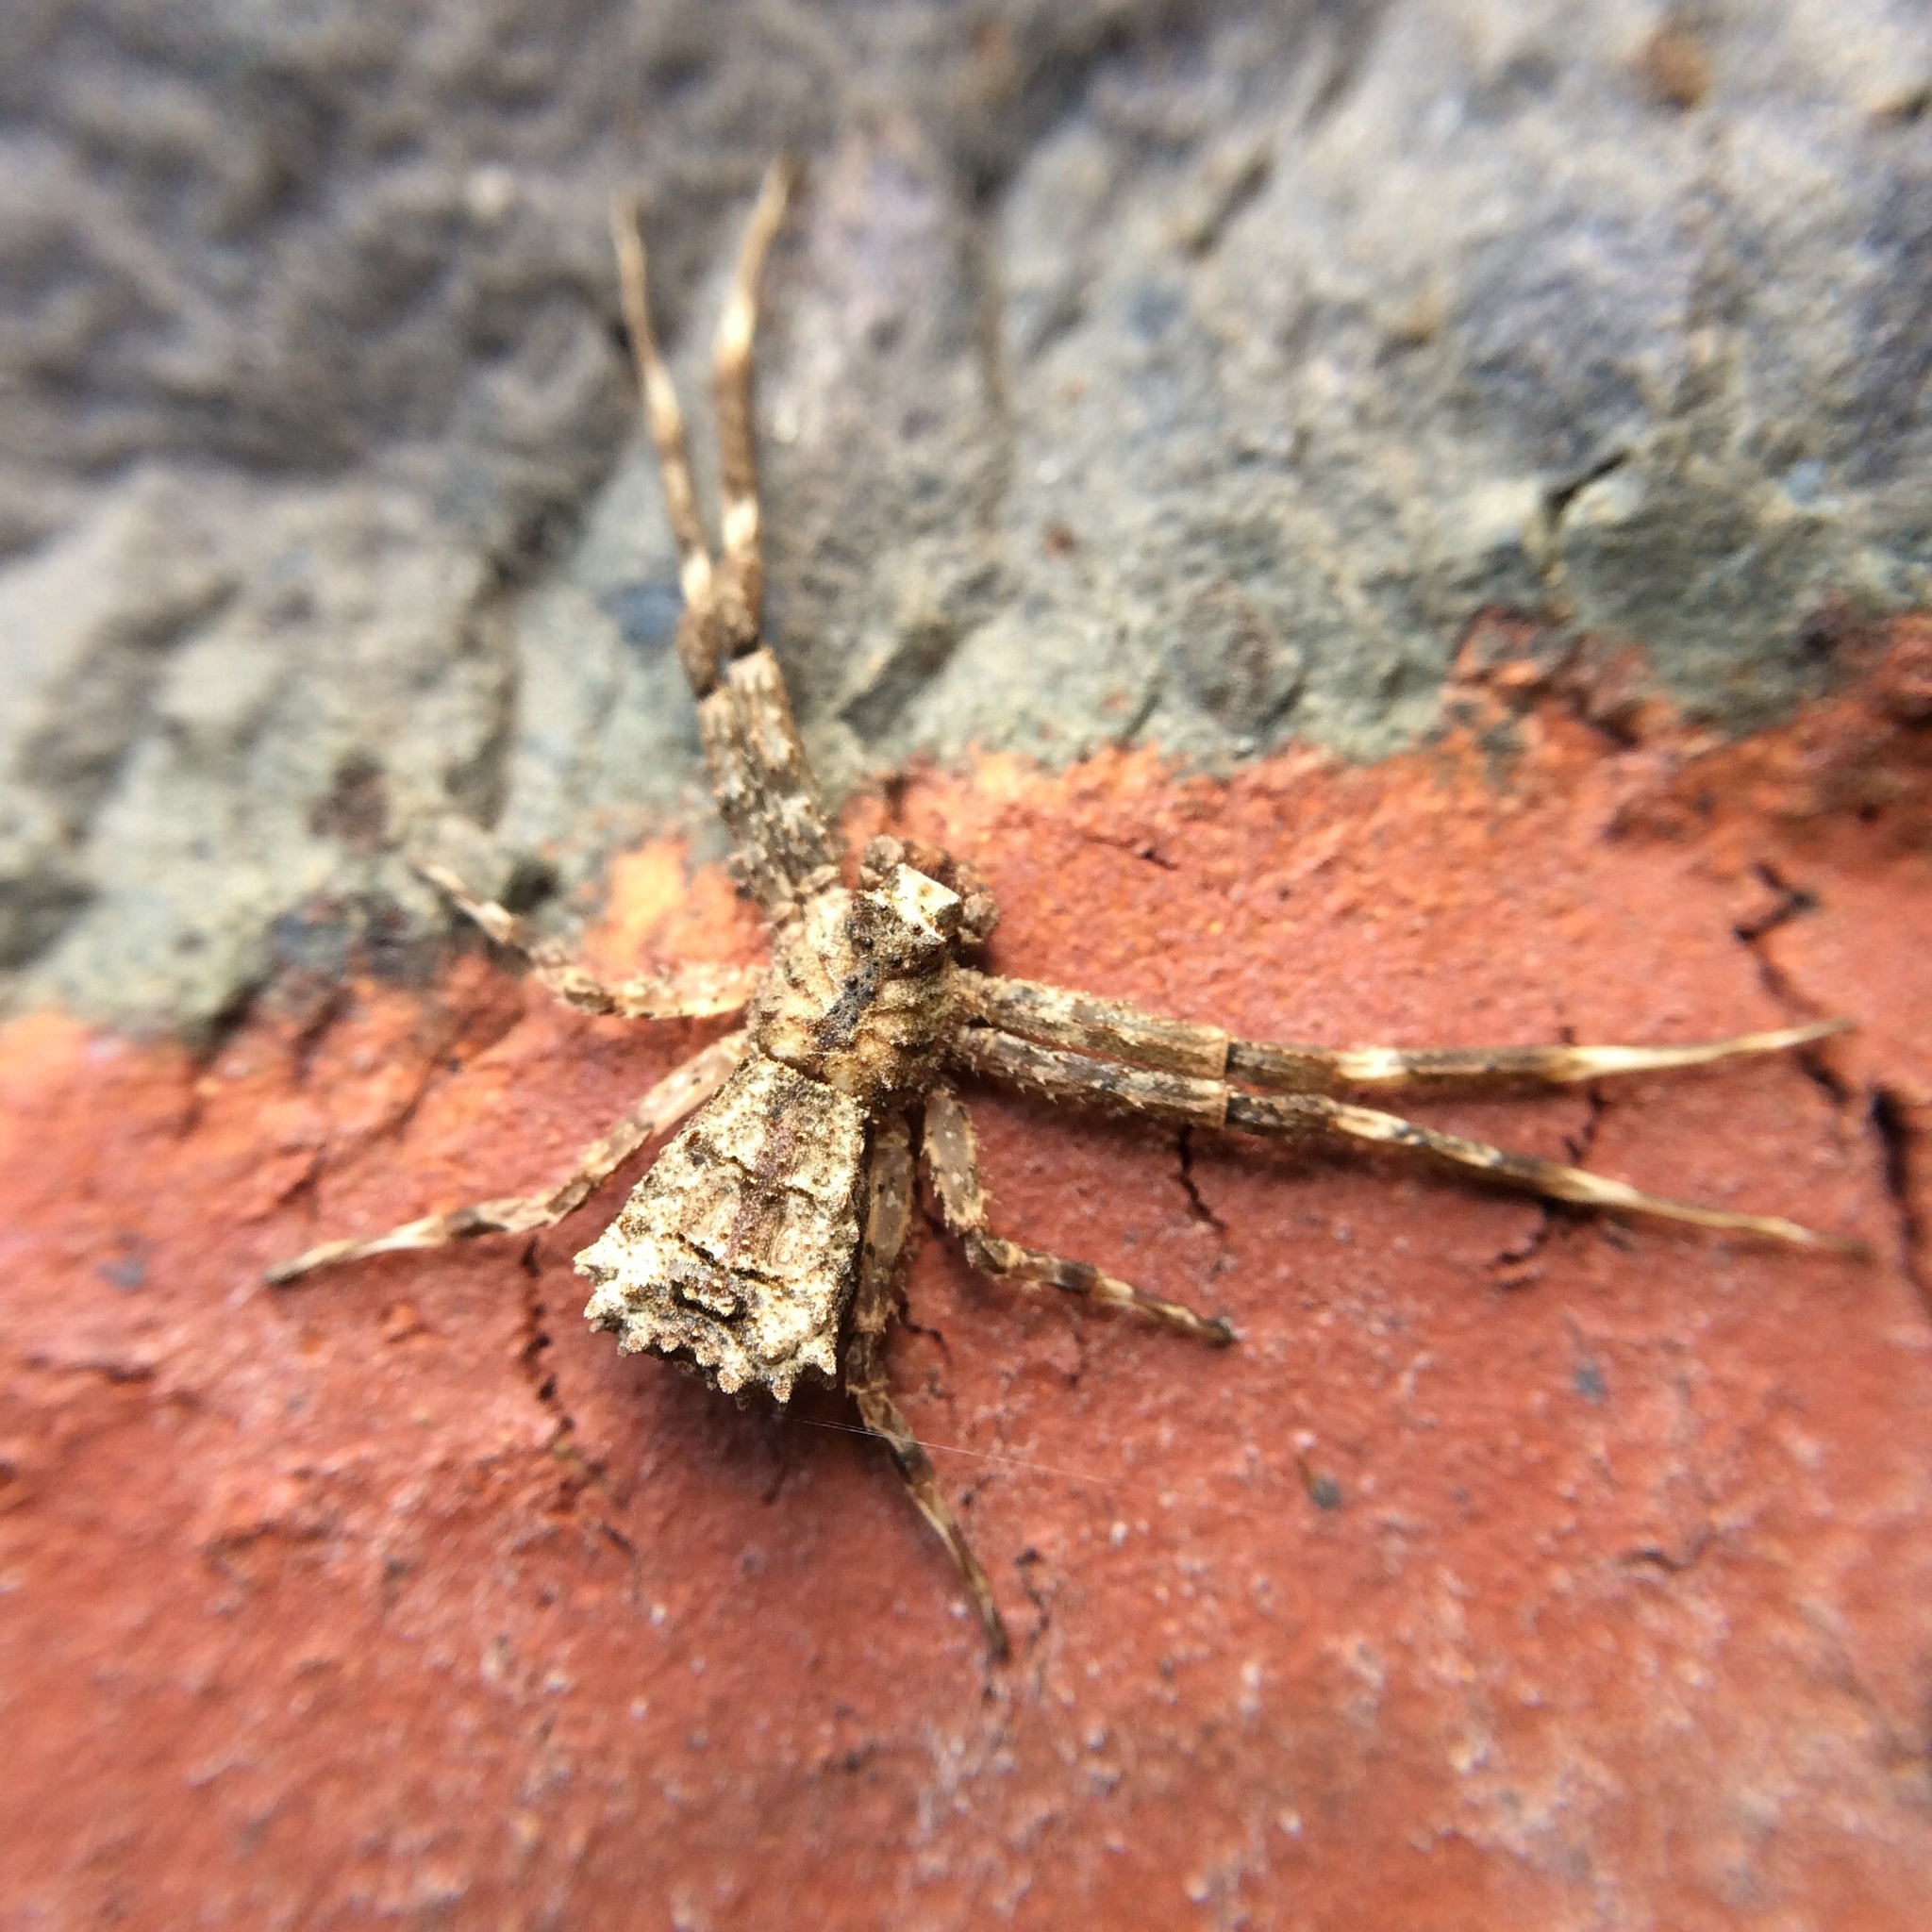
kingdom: Animalia
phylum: Arthropoda
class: Arachnida
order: Araneae
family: Thomisidae
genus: Simorcus
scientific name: Simorcus cotti
